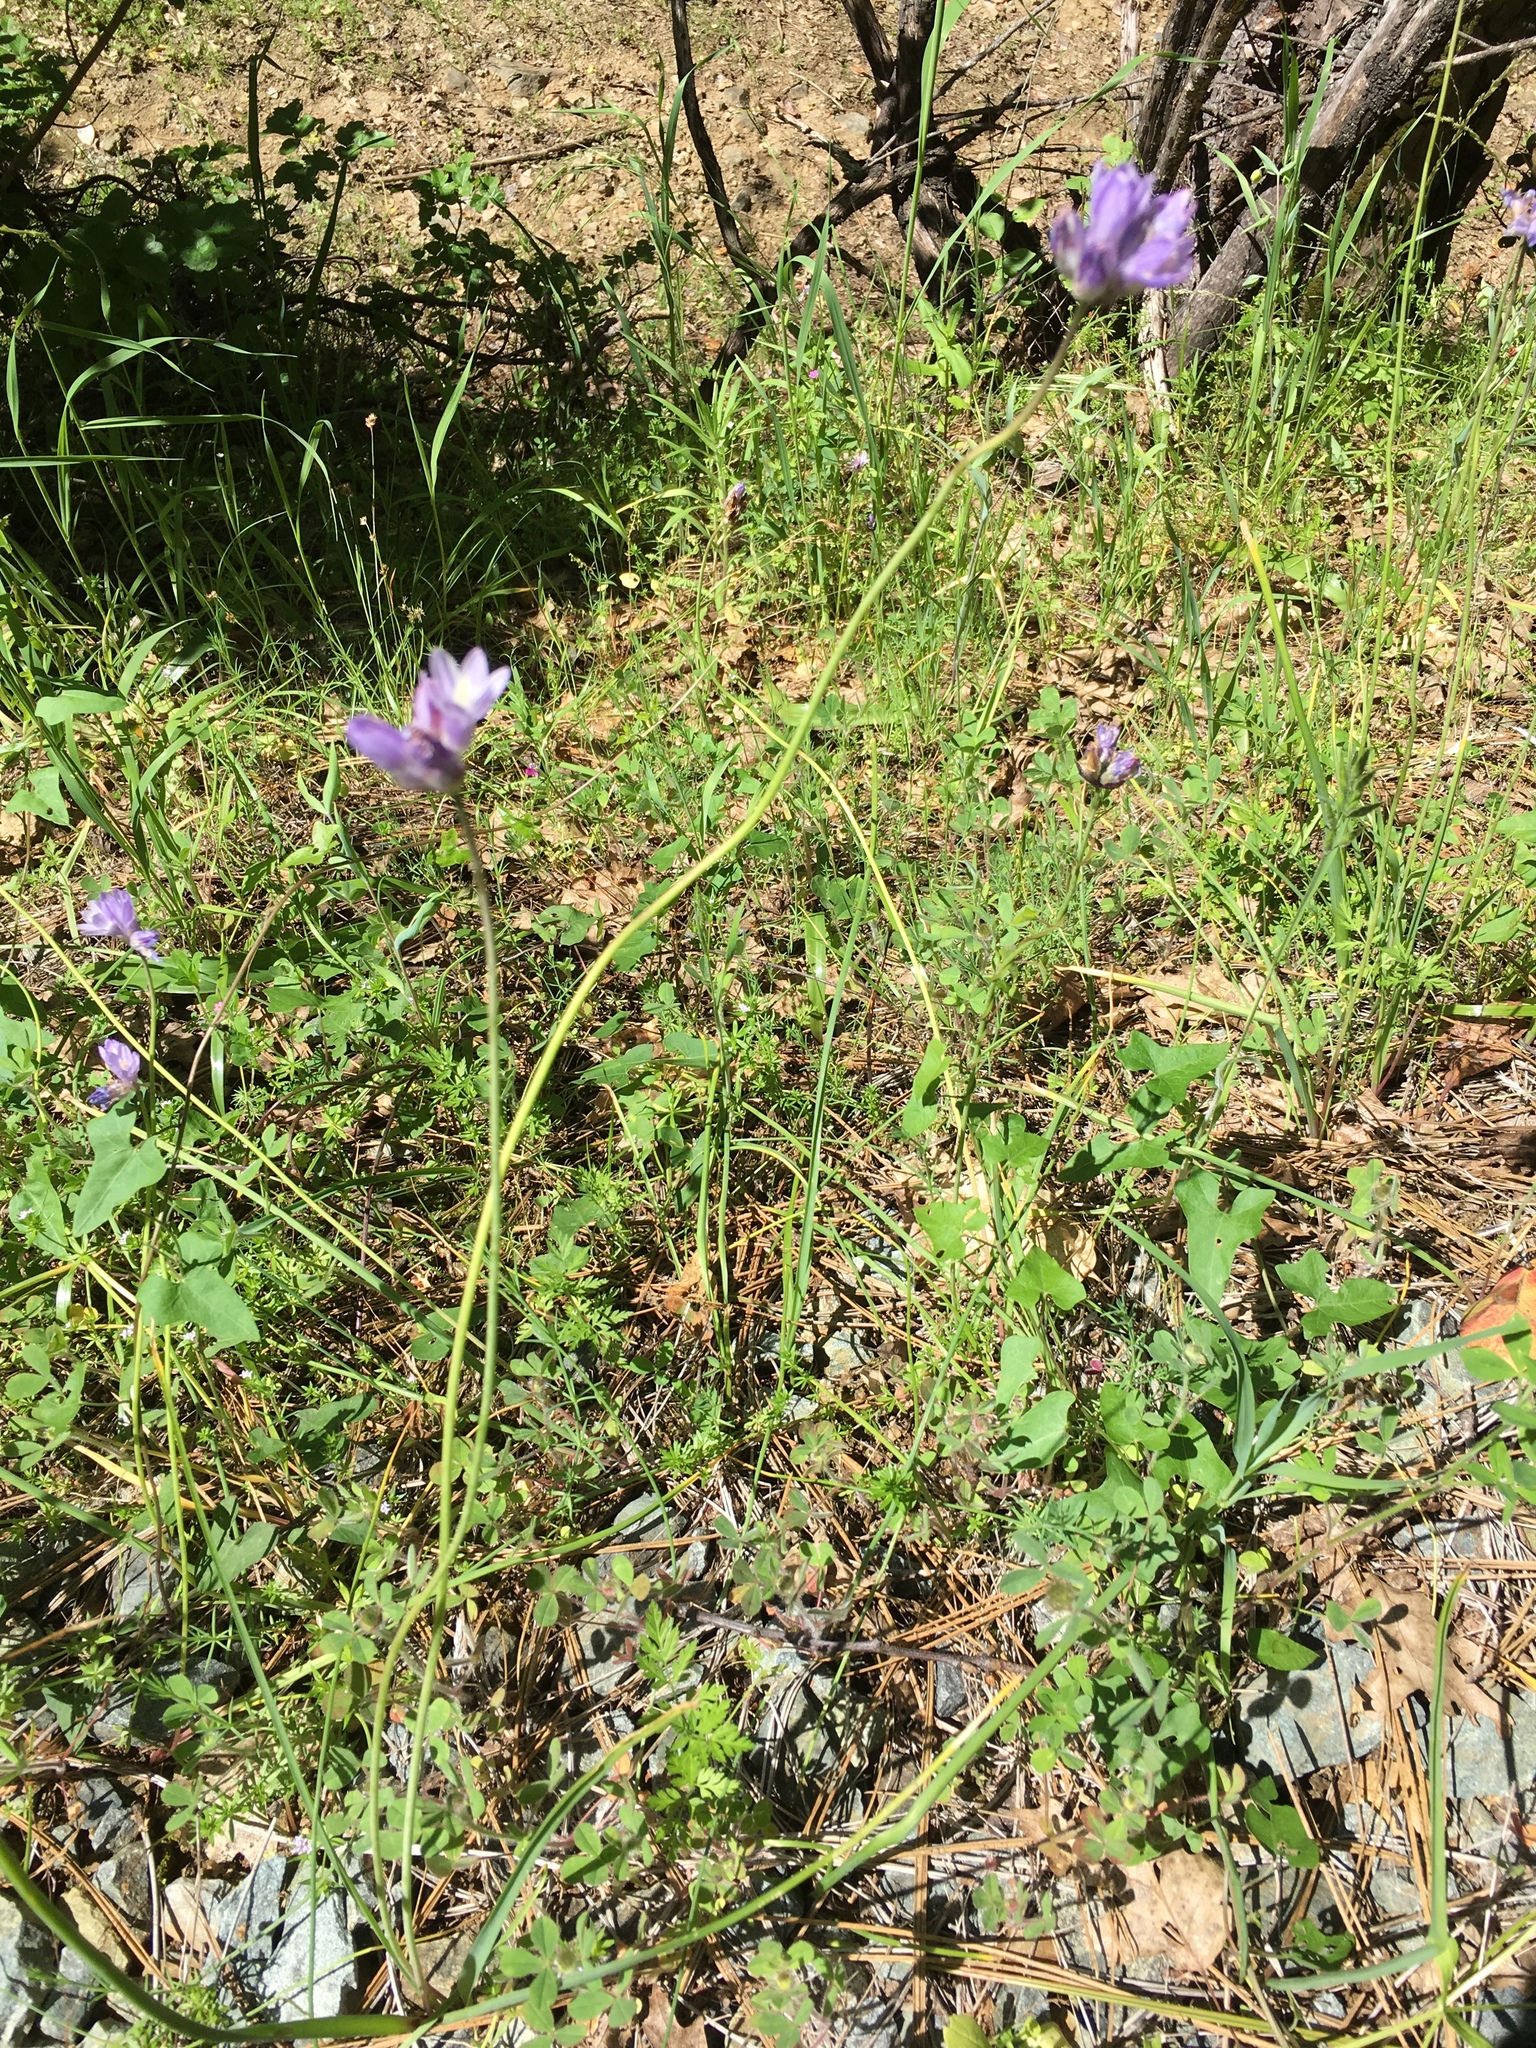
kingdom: Plantae
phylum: Tracheophyta
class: Liliopsida
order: Asparagales
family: Asparagaceae
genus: Dipterostemon
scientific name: Dipterostemon capitatus
